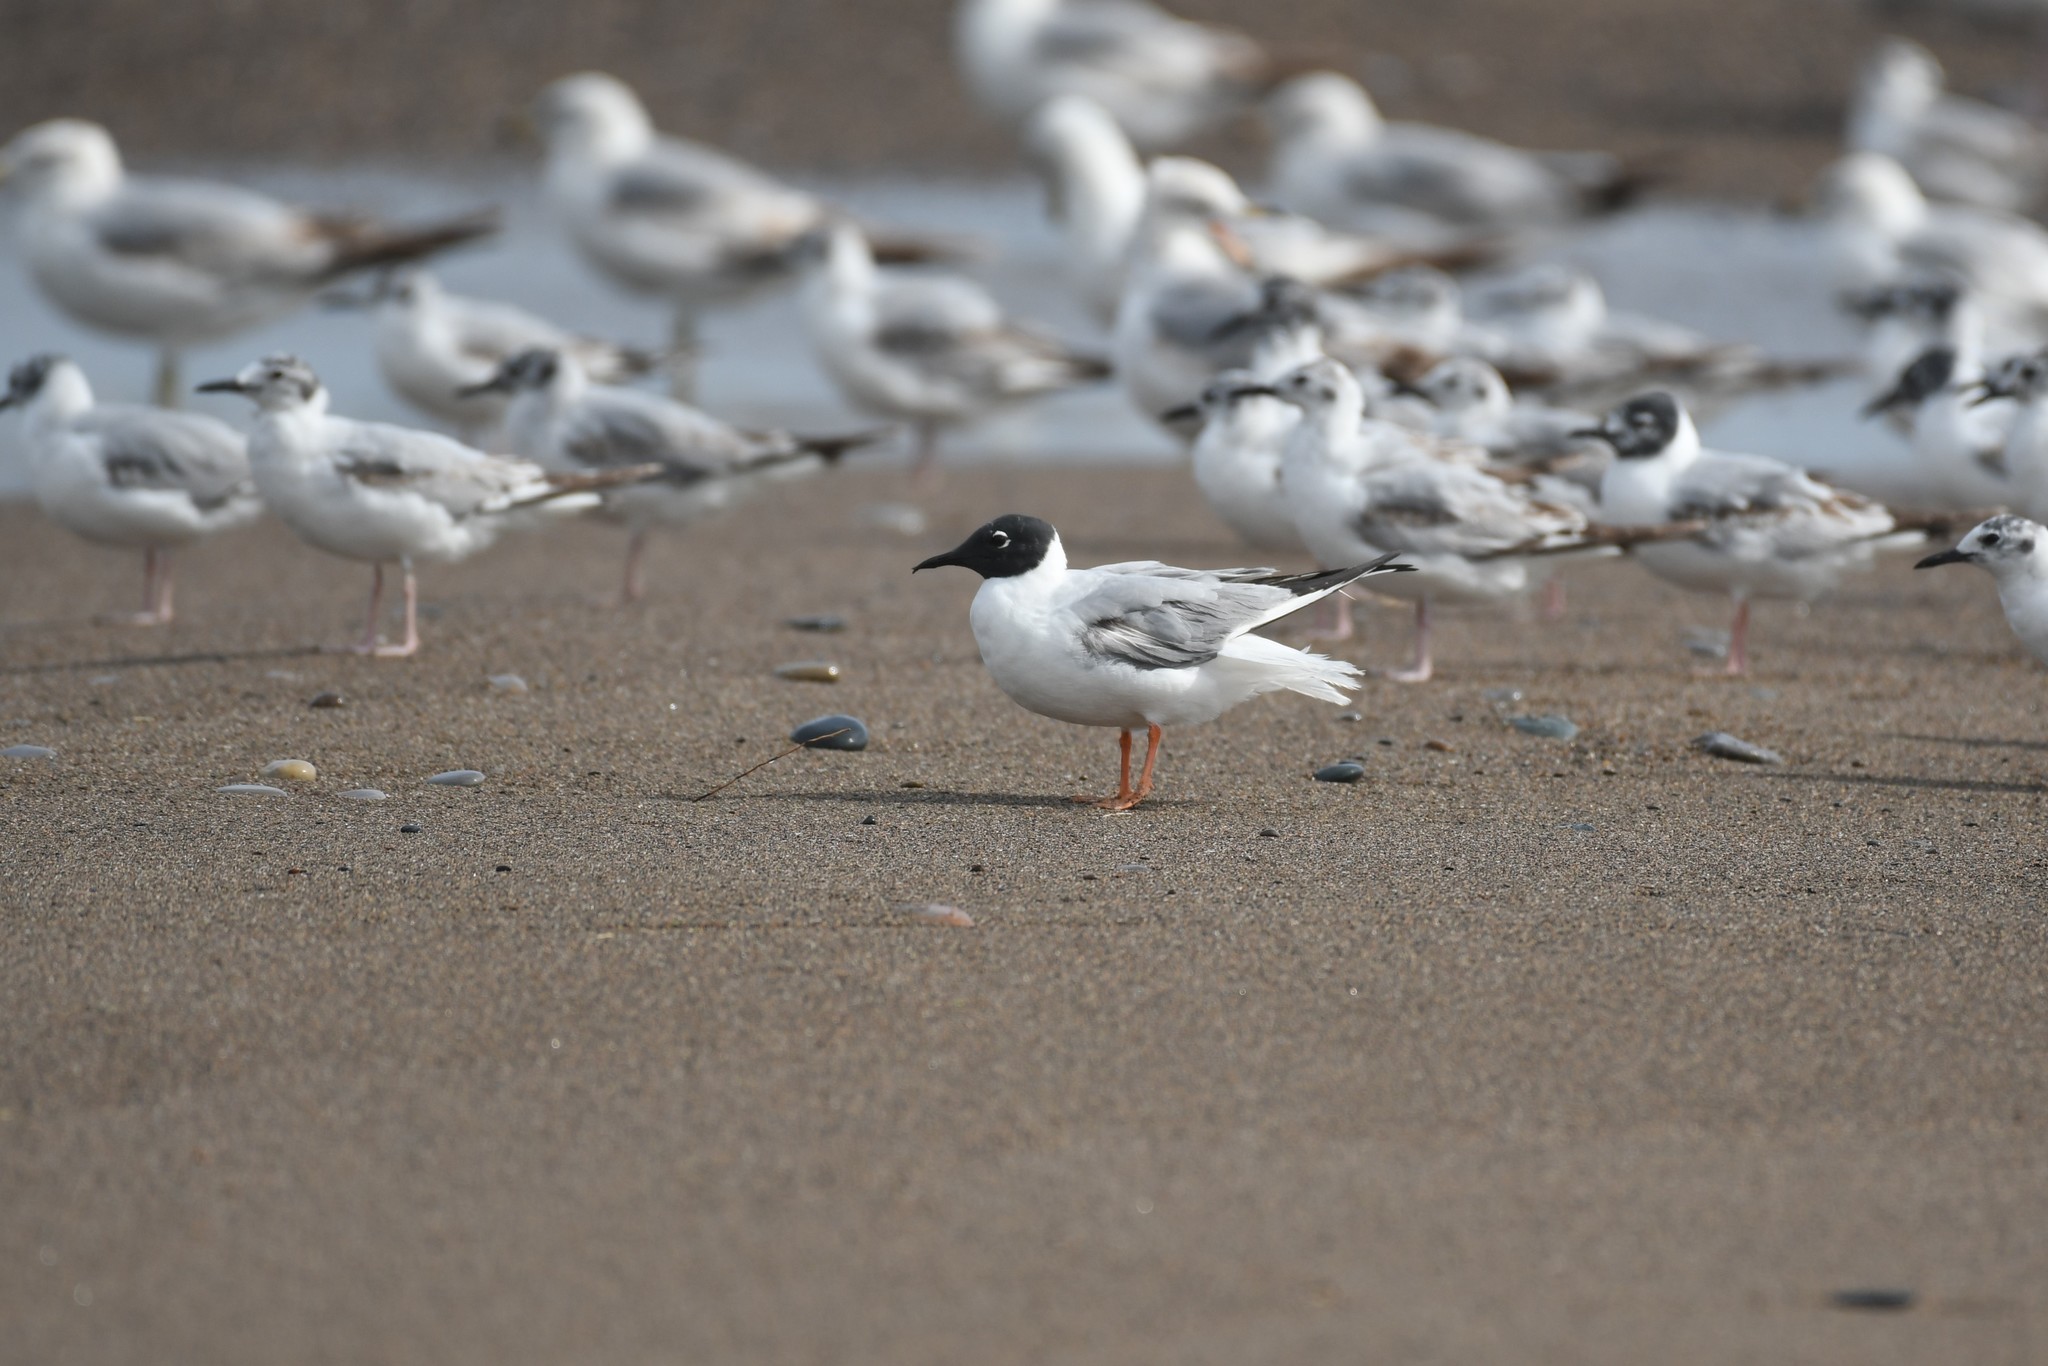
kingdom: Animalia
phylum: Chordata
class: Aves
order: Charadriiformes
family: Laridae
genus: Chroicocephalus
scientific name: Chroicocephalus philadelphia
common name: Bonaparte's gull
